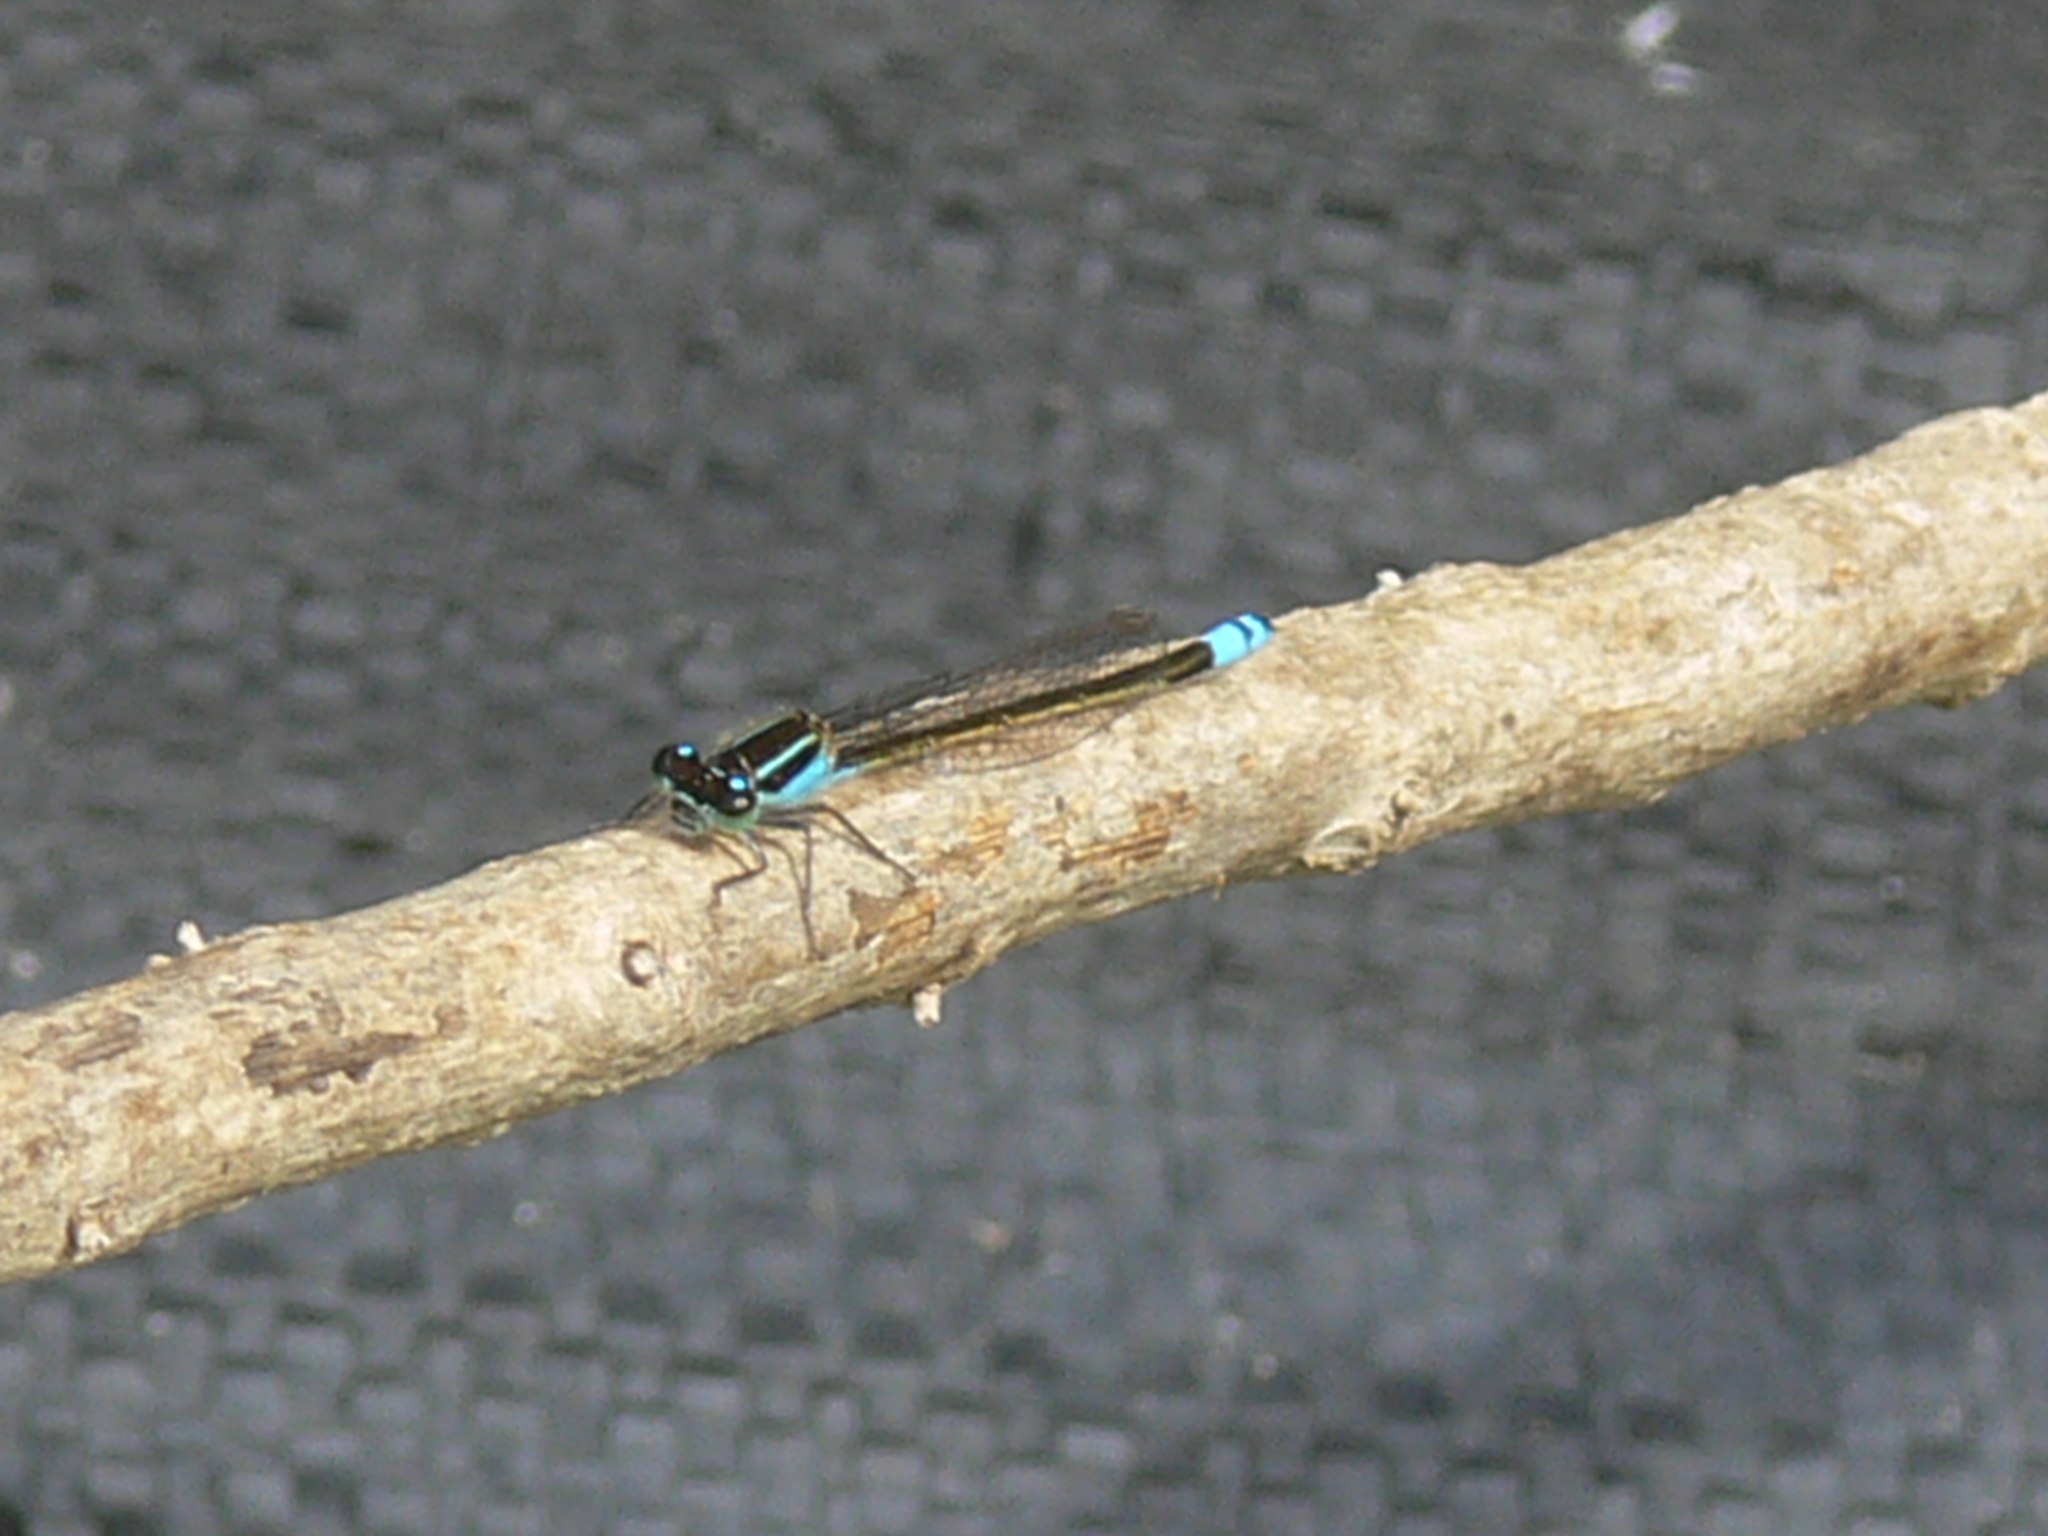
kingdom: Animalia
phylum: Arthropoda
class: Insecta
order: Odonata
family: Coenagrionidae
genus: Ischnura
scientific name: Ischnura ramburii
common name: Rambur's forktail
